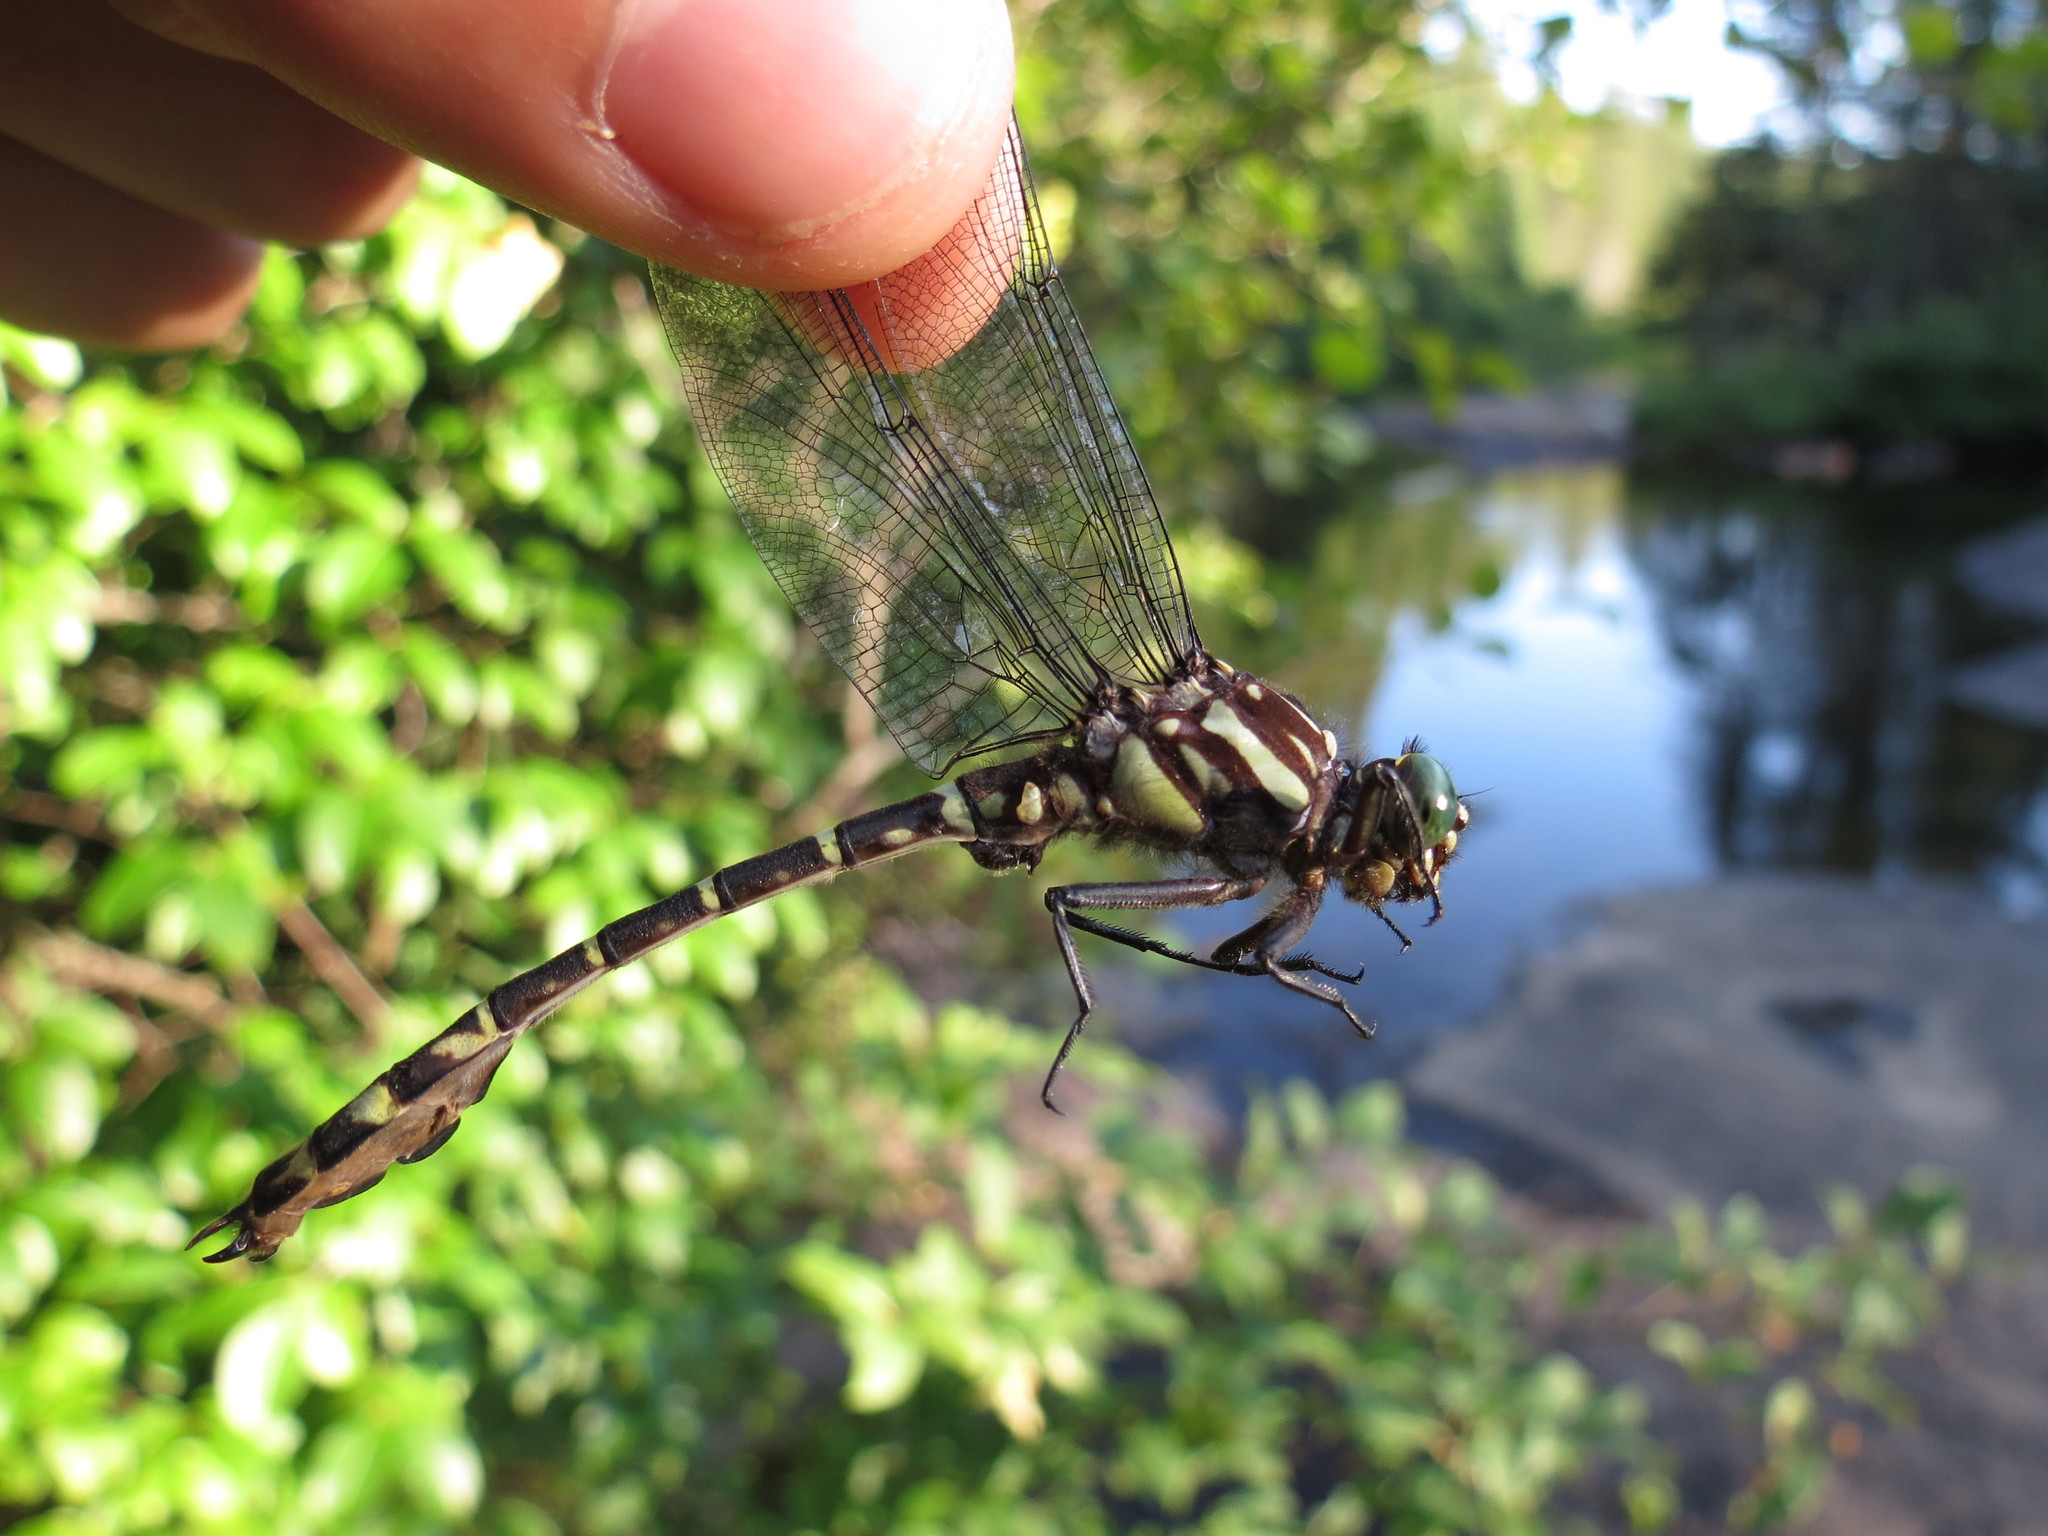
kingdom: Animalia
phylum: Arthropoda
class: Insecta
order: Odonata
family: Gomphidae
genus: Stylurus
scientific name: Stylurus scudderi
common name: Zebra clubtail
